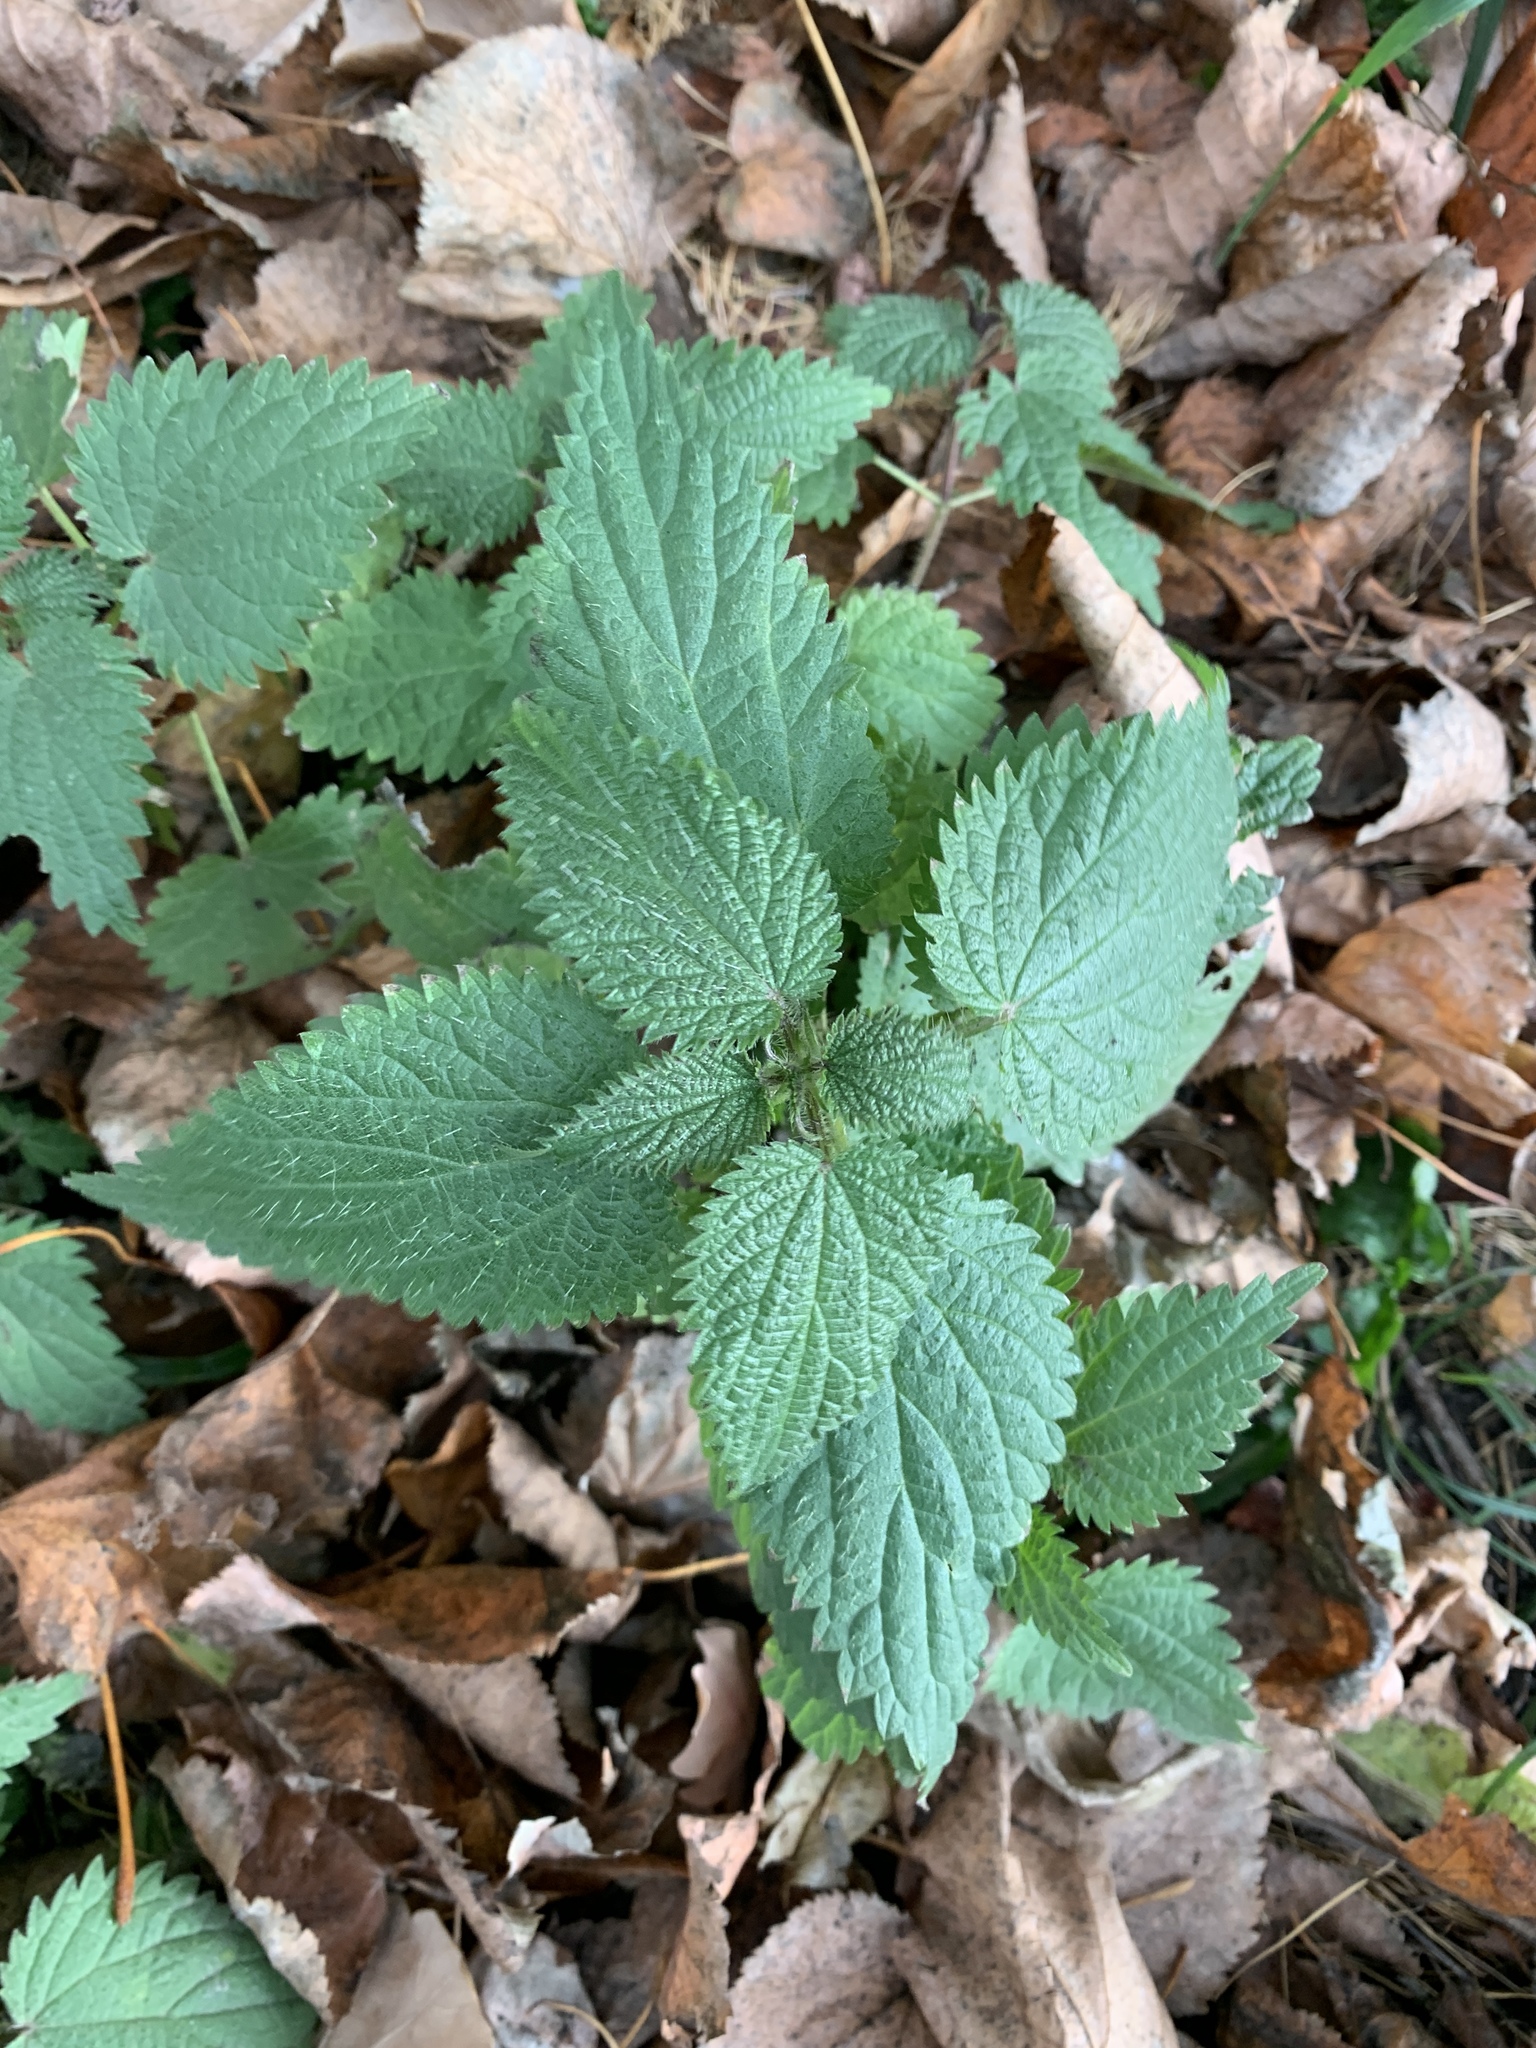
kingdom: Plantae
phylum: Tracheophyta
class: Magnoliopsida
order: Rosales
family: Urticaceae
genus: Urtica
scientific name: Urtica dioica
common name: Common nettle
